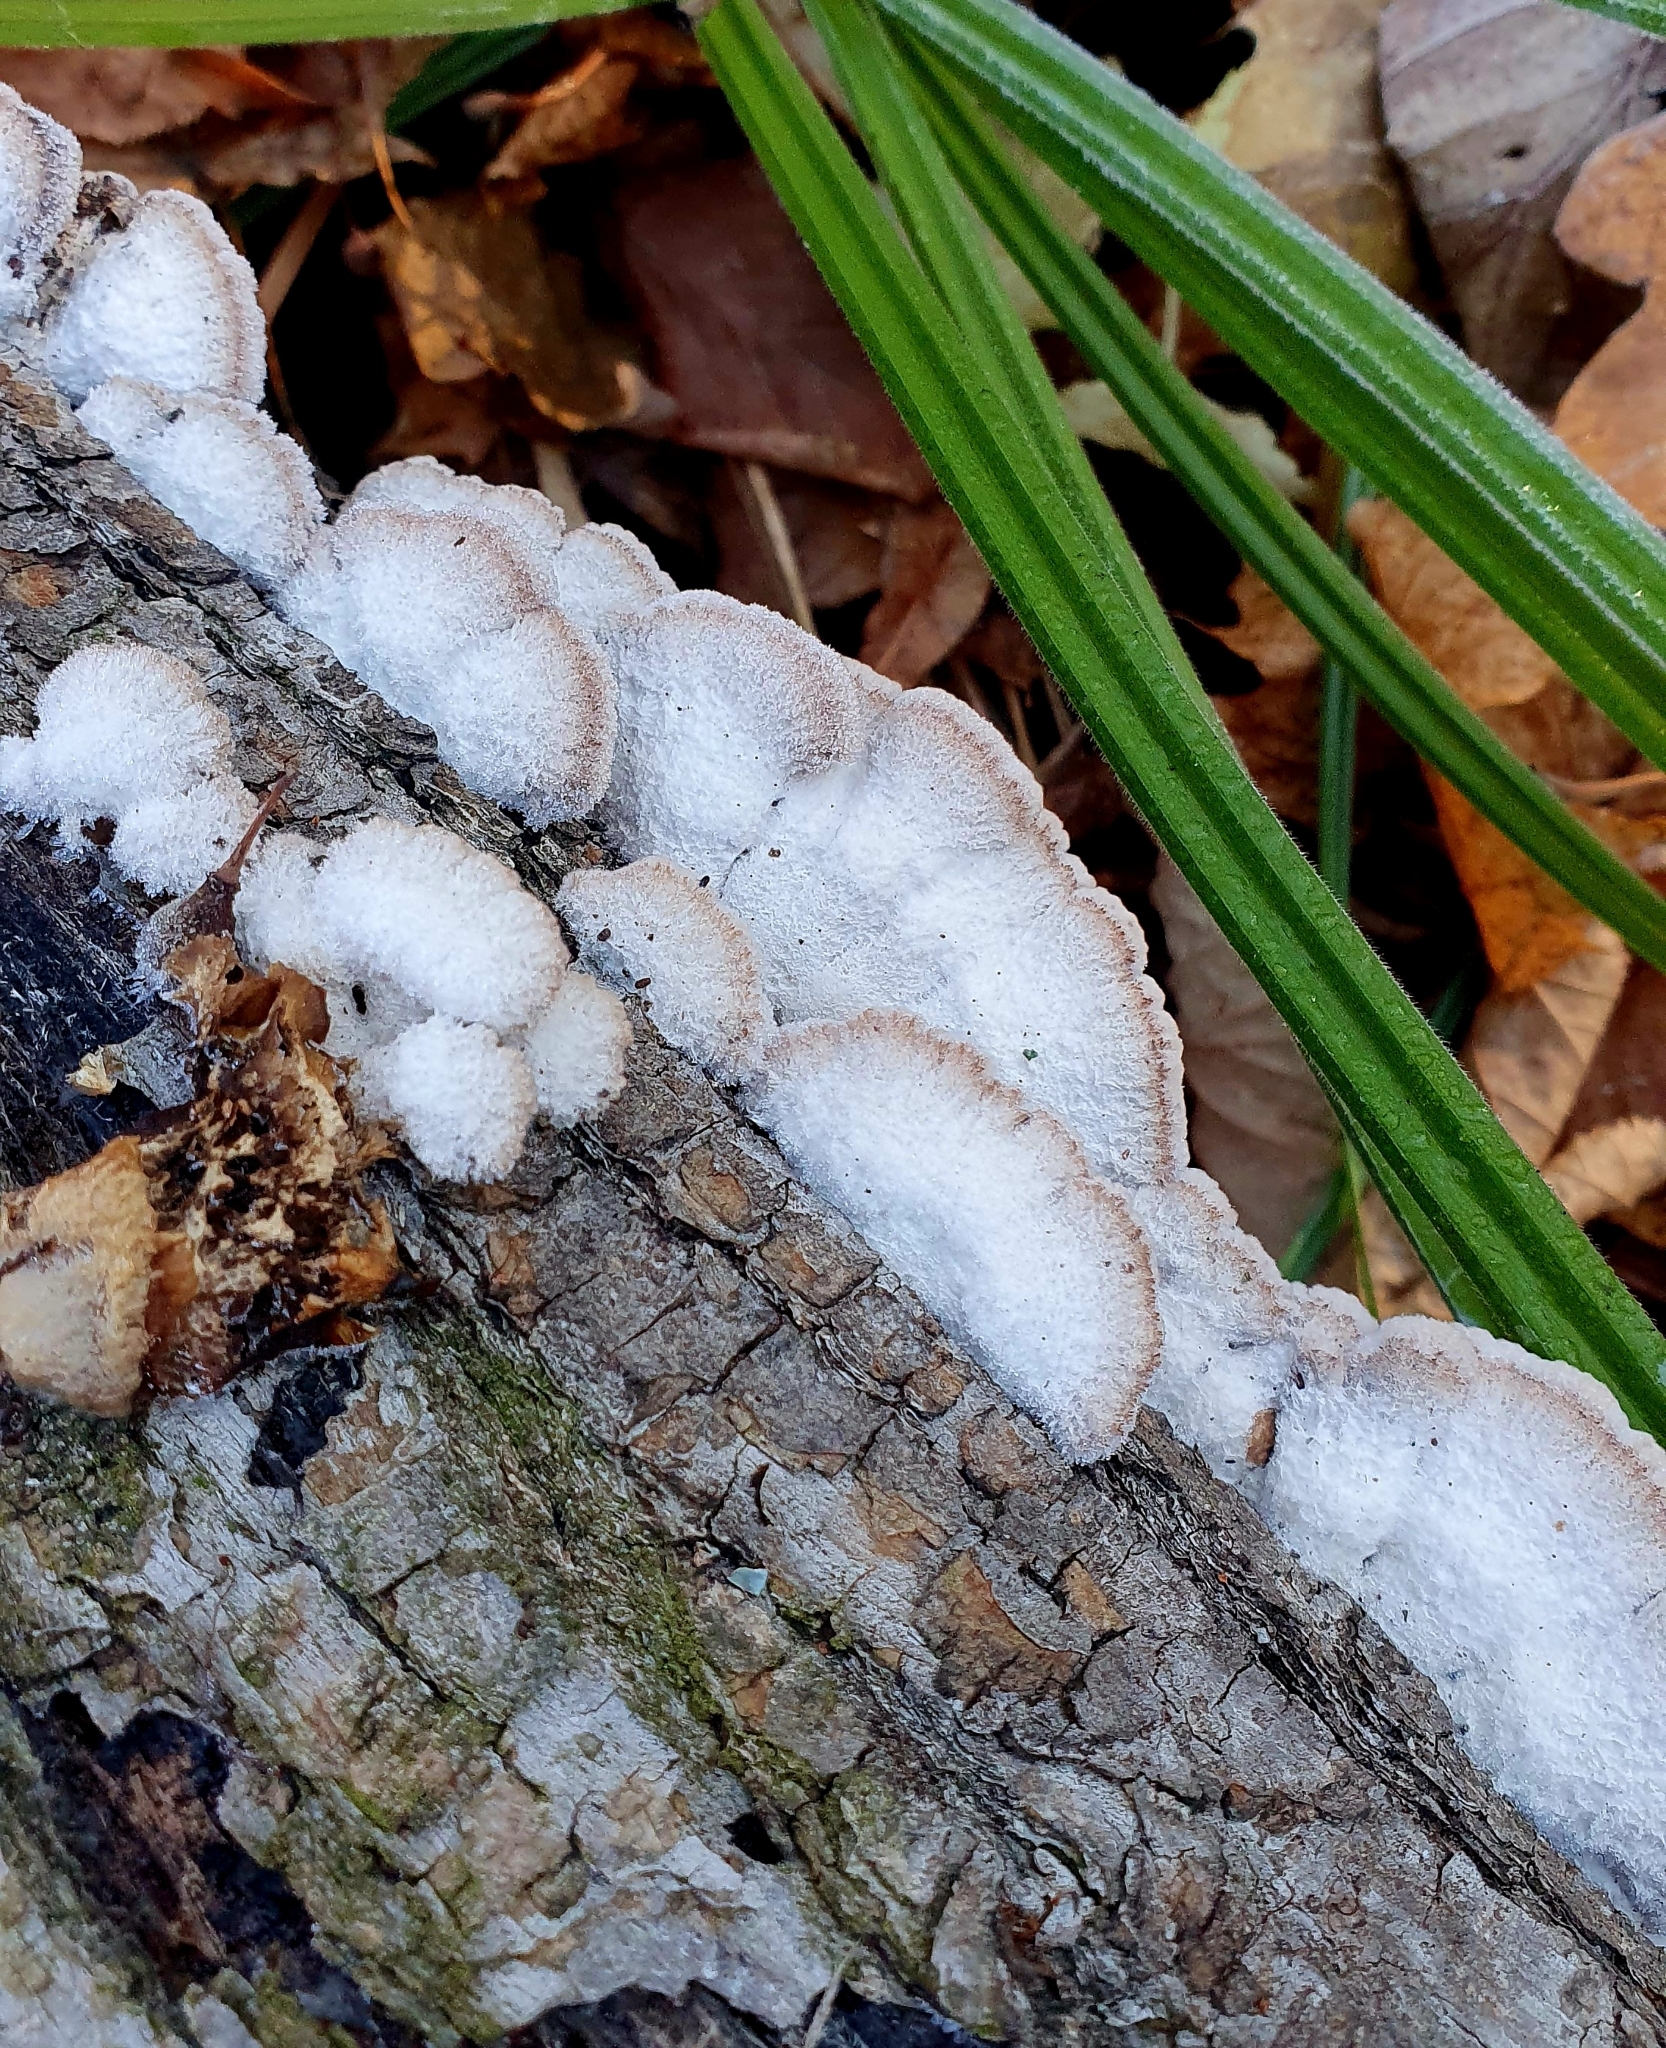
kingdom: Fungi
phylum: Basidiomycota
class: Agaricomycetes
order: Agaricales
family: Schizophyllaceae
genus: Schizophyllum
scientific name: Schizophyllum commune
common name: Common porecrust
